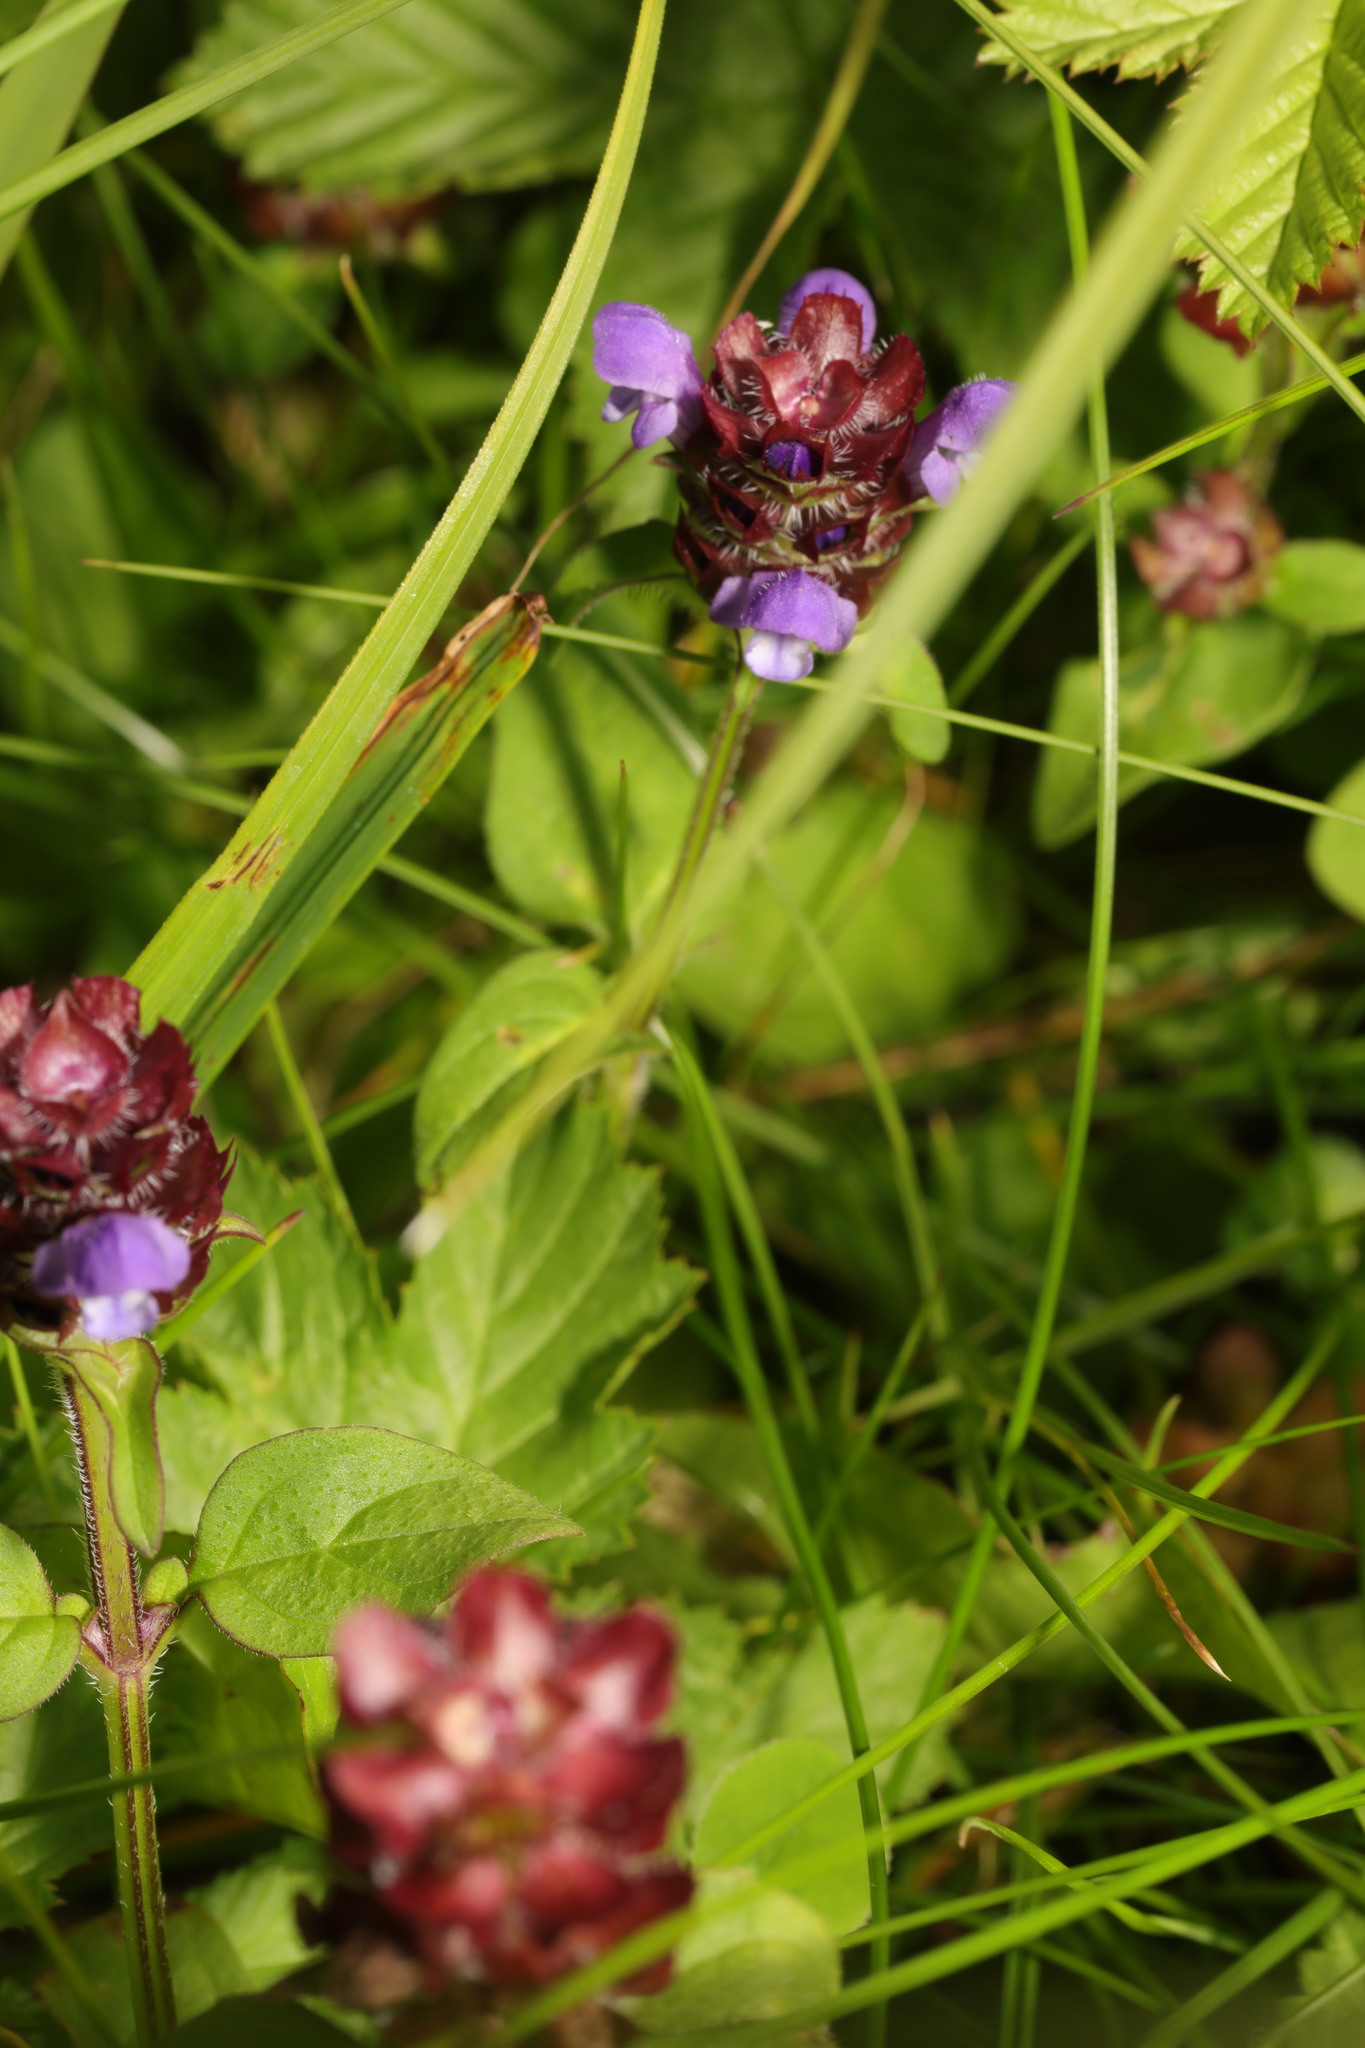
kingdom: Plantae
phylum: Tracheophyta
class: Magnoliopsida
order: Lamiales
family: Lamiaceae
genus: Prunella
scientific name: Prunella vulgaris
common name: Heal-all
